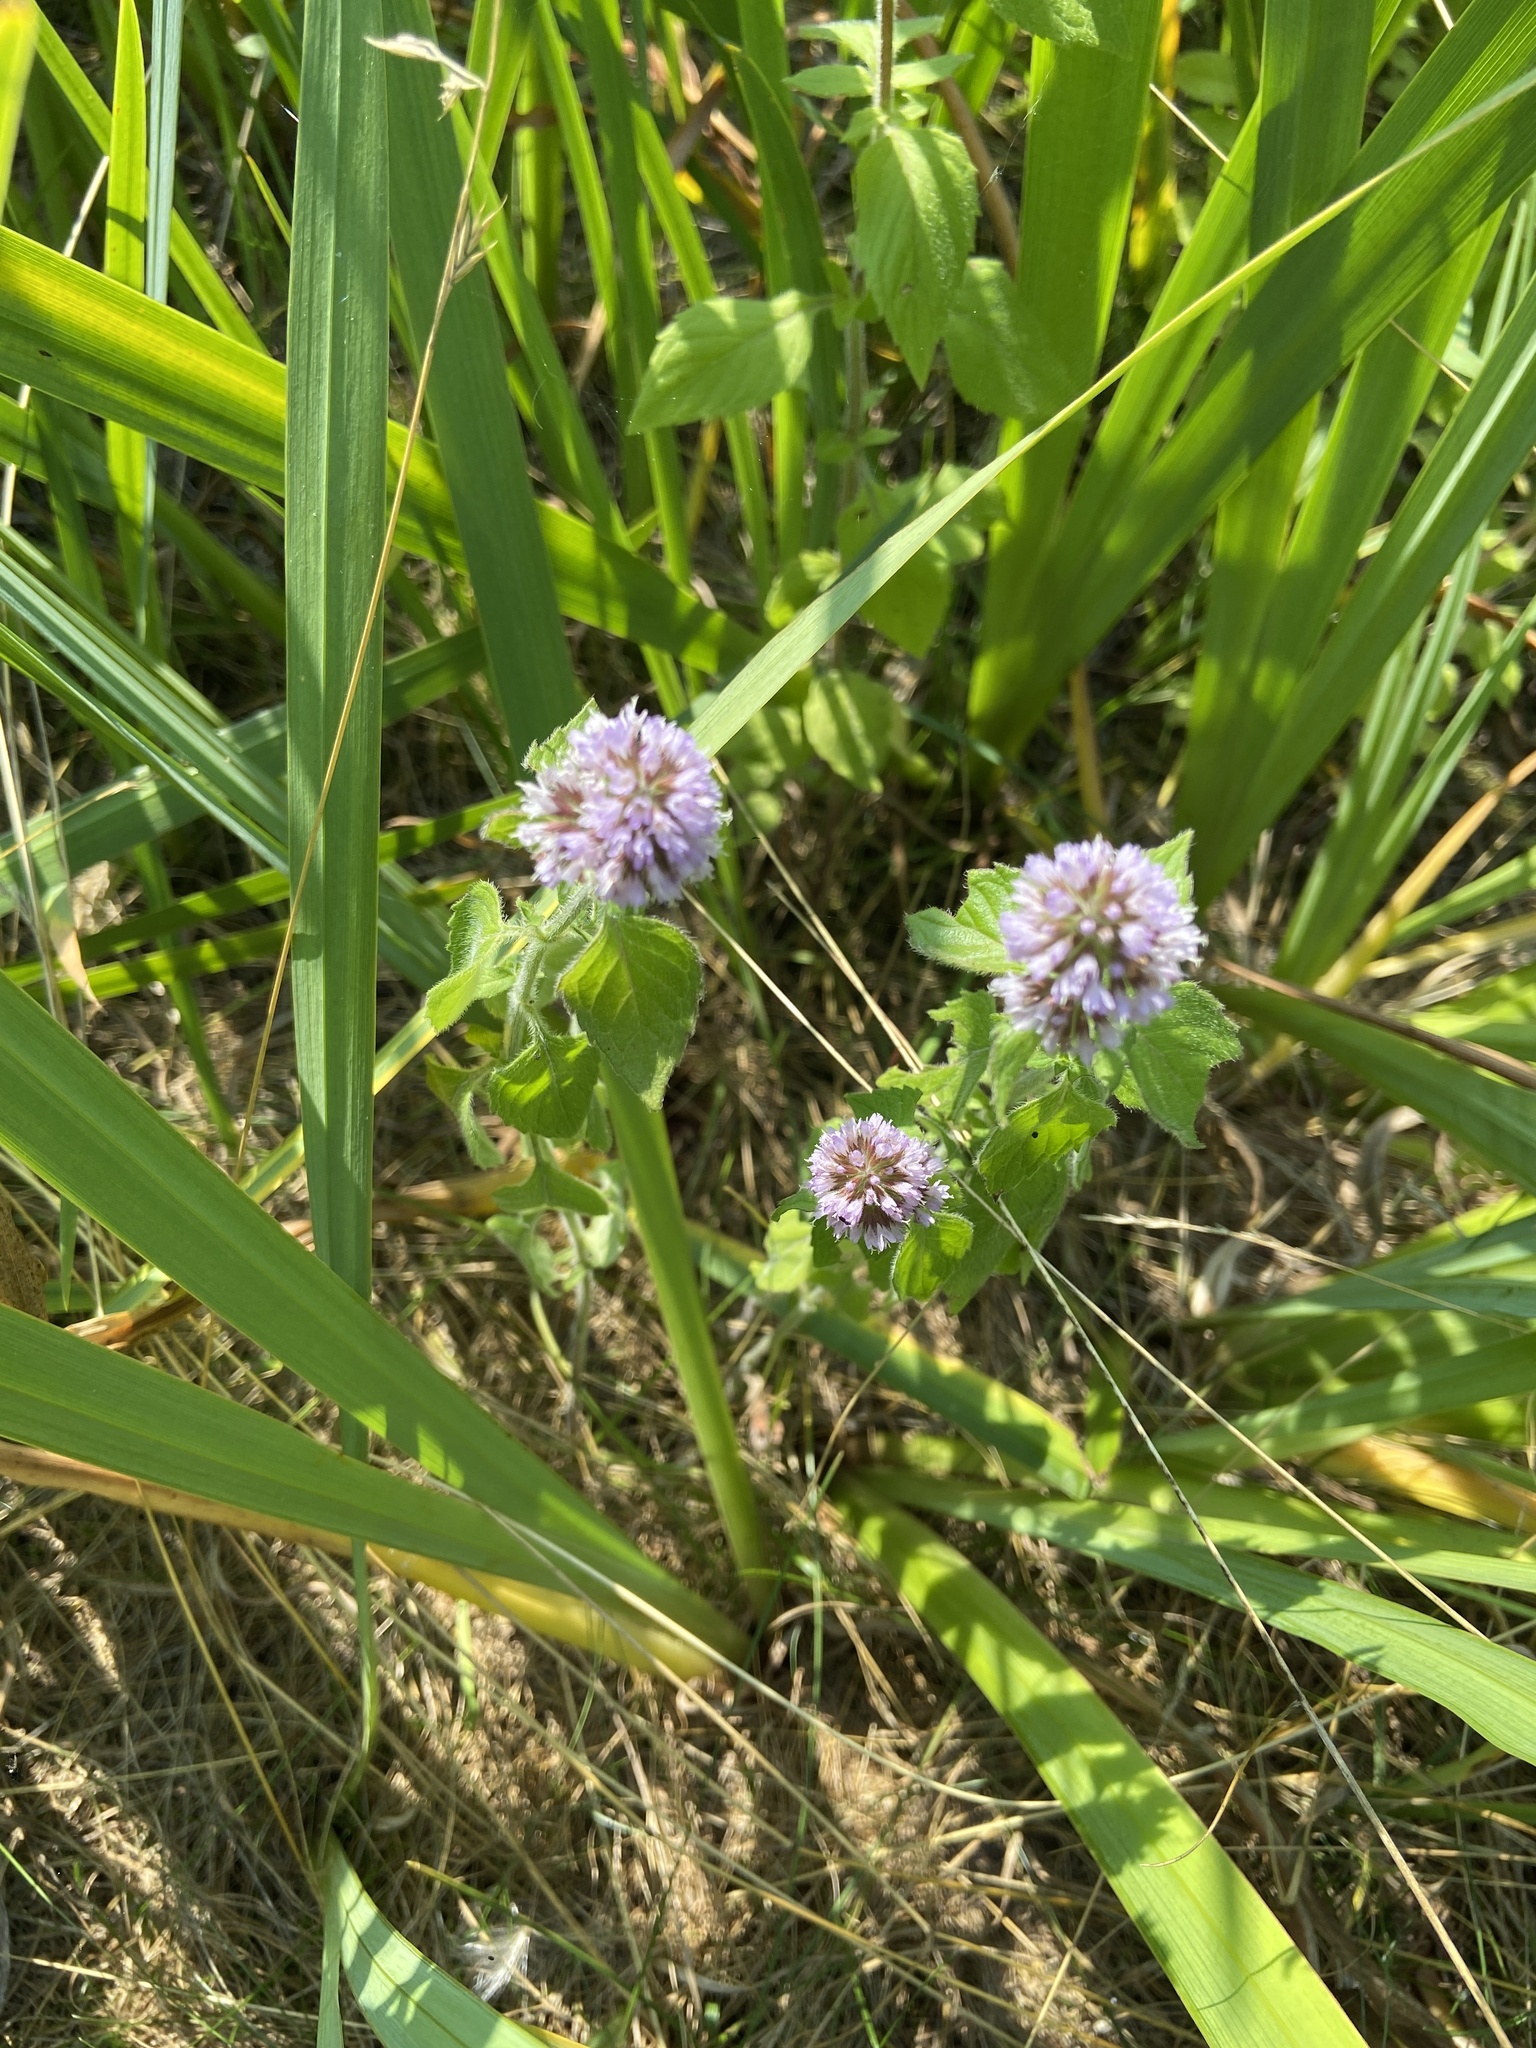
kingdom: Plantae
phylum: Tracheophyta
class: Magnoliopsida
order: Lamiales
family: Lamiaceae
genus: Mentha
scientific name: Mentha aquatica
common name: Water mint
